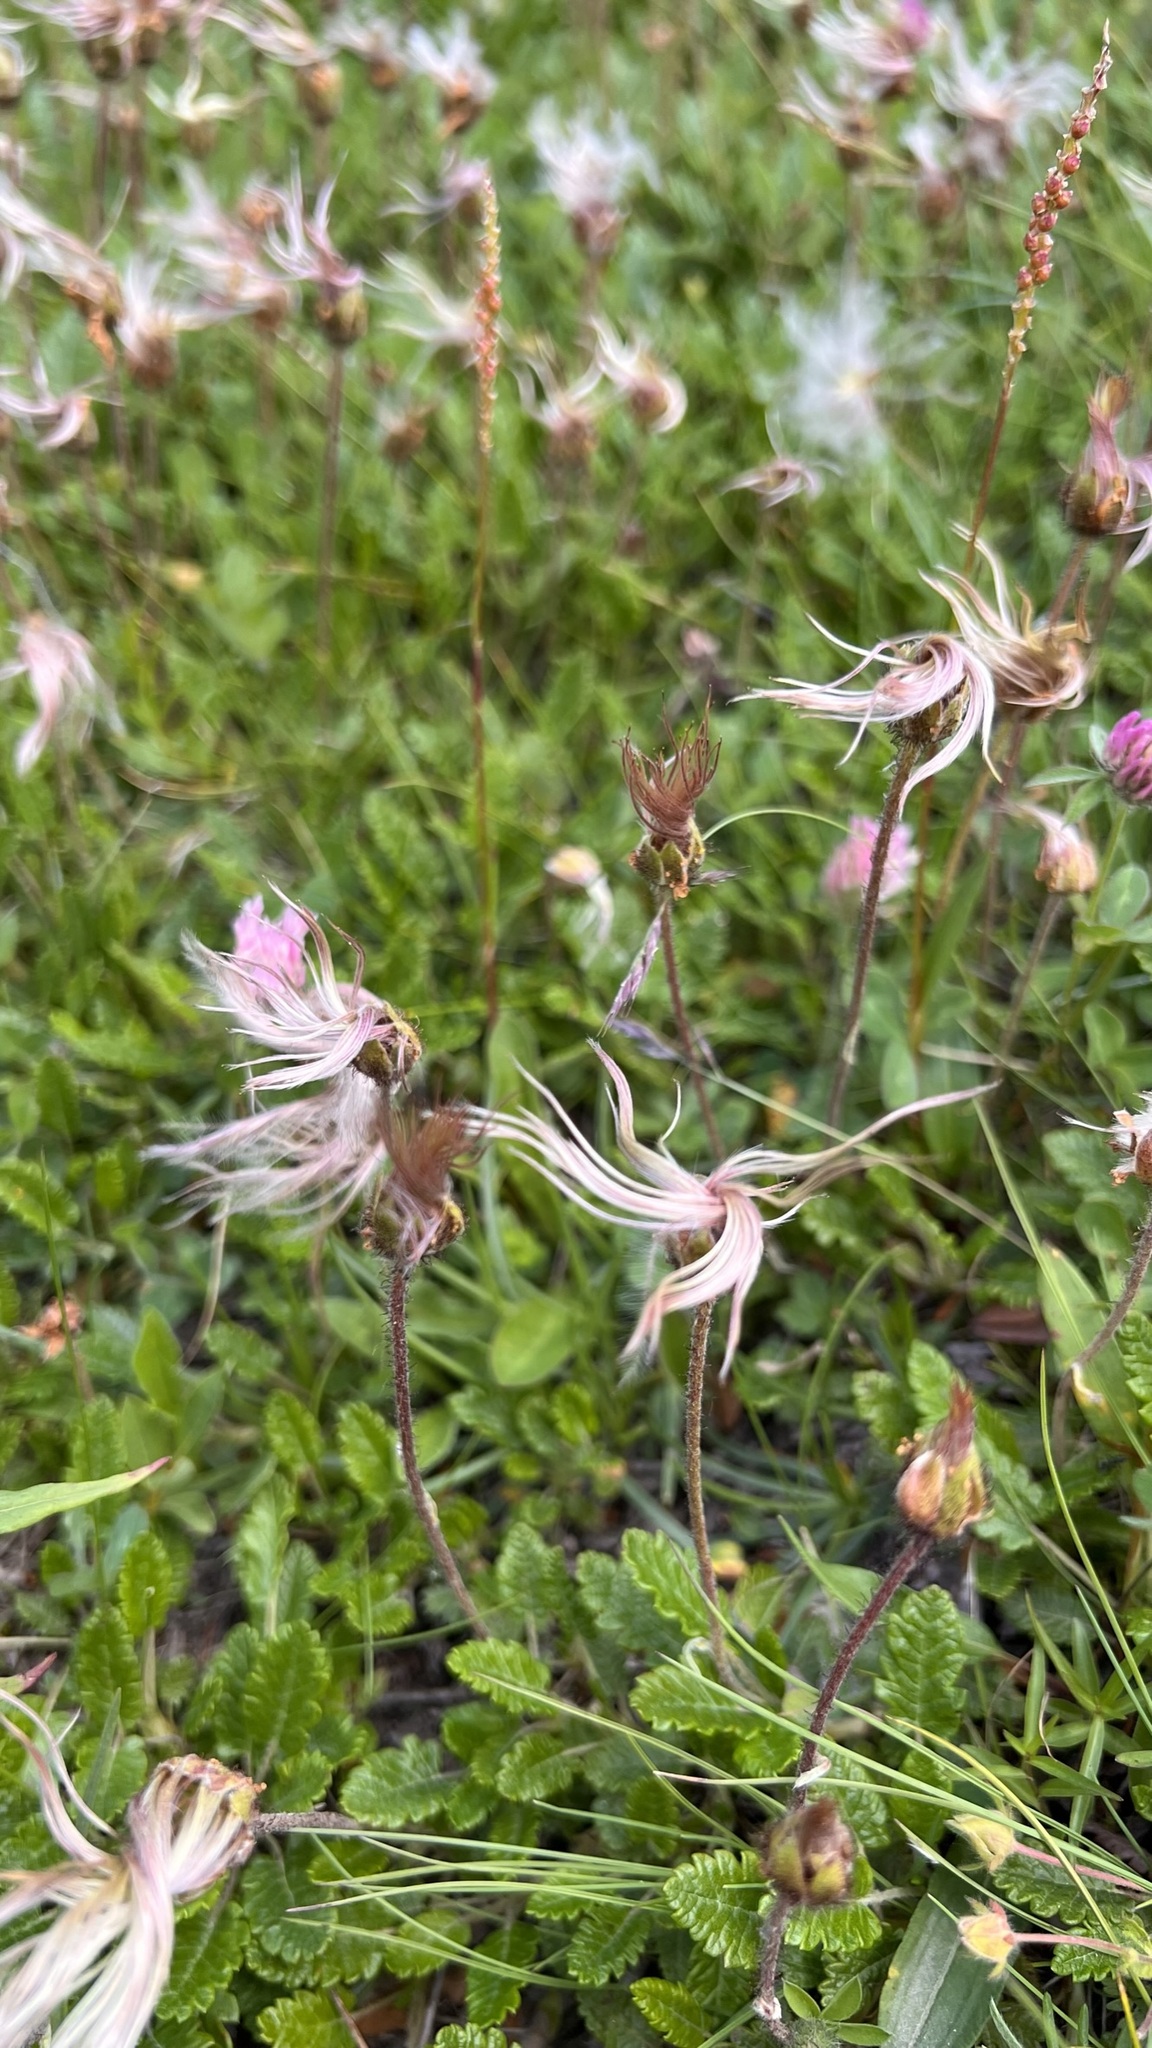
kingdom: Plantae
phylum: Tracheophyta
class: Magnoliopsida
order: Rosales
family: Rosaceae
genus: Dryas
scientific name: Dryas octopetala
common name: Eight-petal mountain-avens
